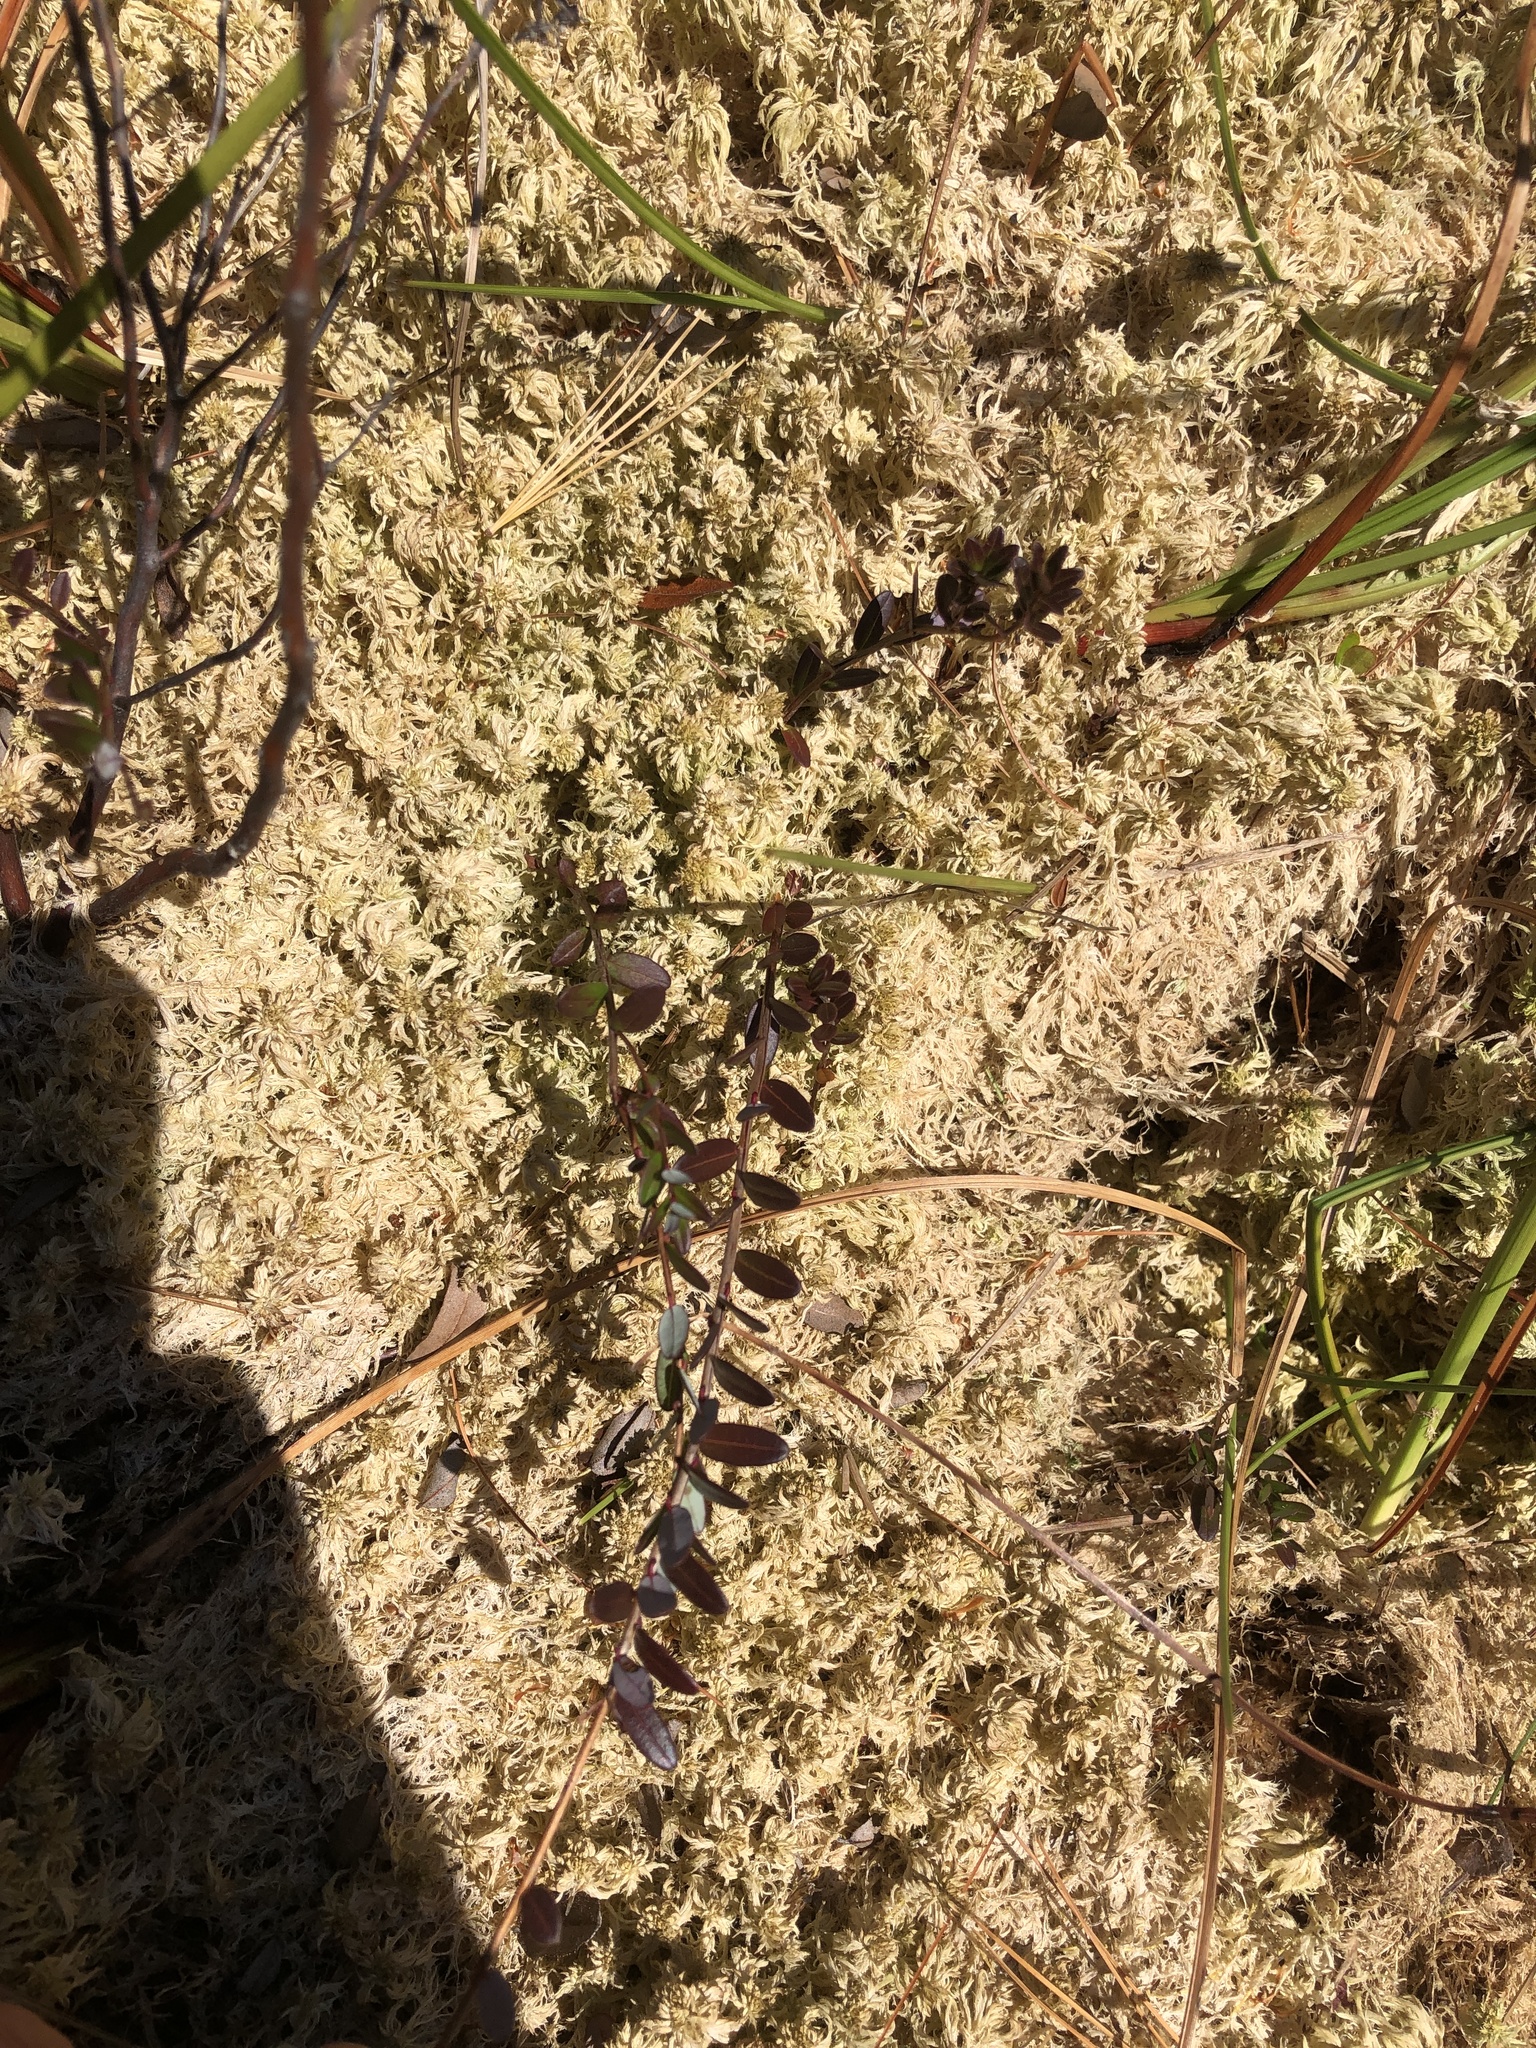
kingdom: Plantae
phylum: Tracheophyta
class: Magnoliopsida
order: Ericales
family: Ericaceae
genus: Vaccinium
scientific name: Vaccinium macrocarpon
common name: American cranberry
